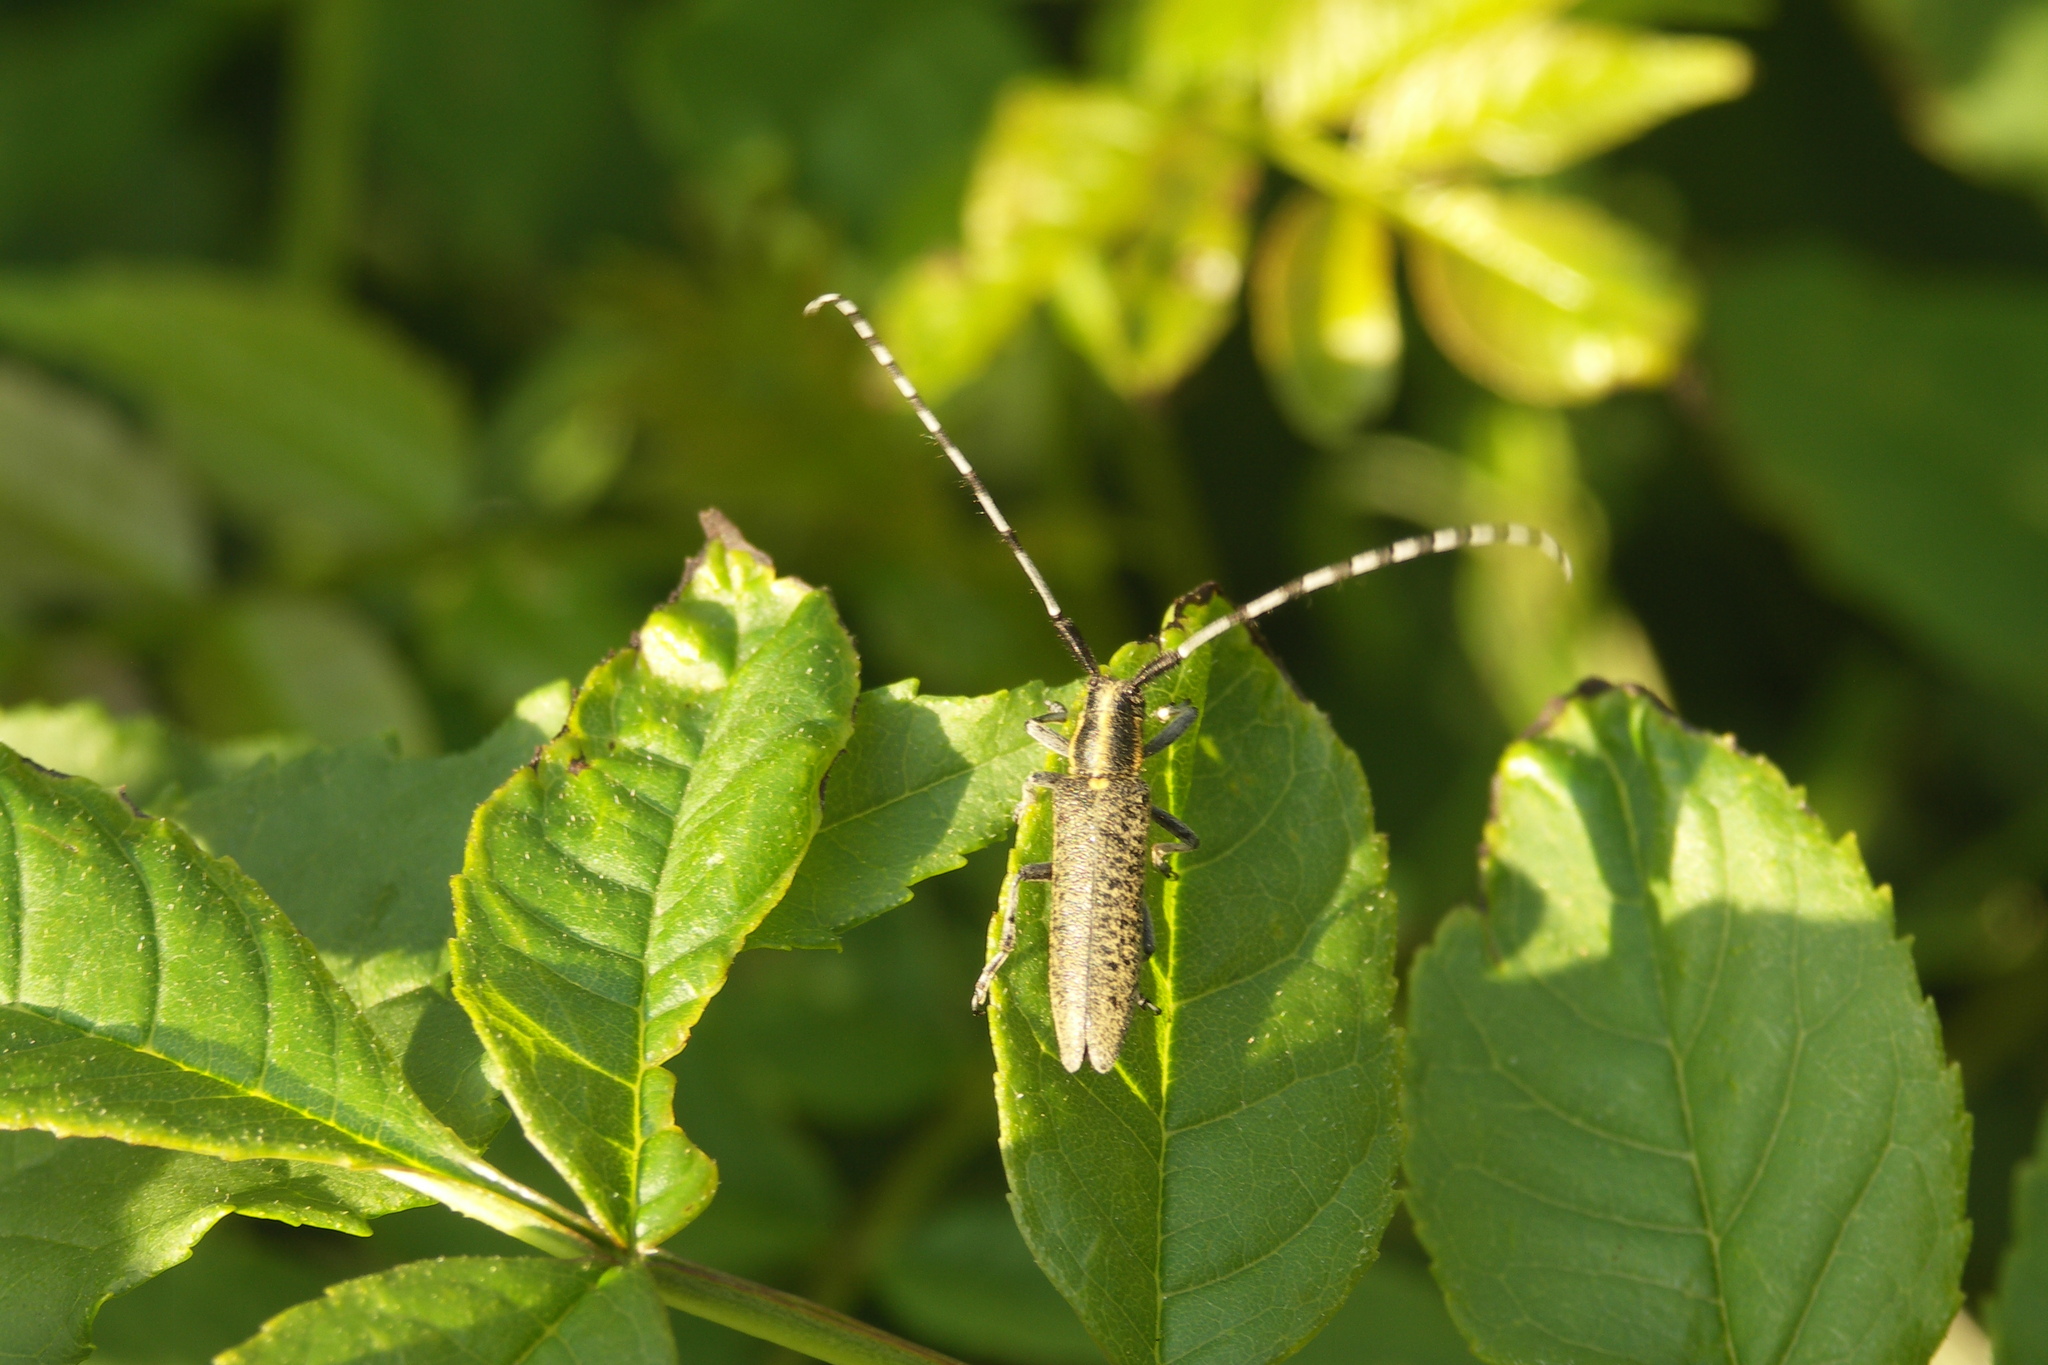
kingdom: Animalia
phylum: Arthropoda
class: Insecta
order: Coleoptera
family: Cerambycidae
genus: Agapanthia
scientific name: Agapanthia villosoviridescens
